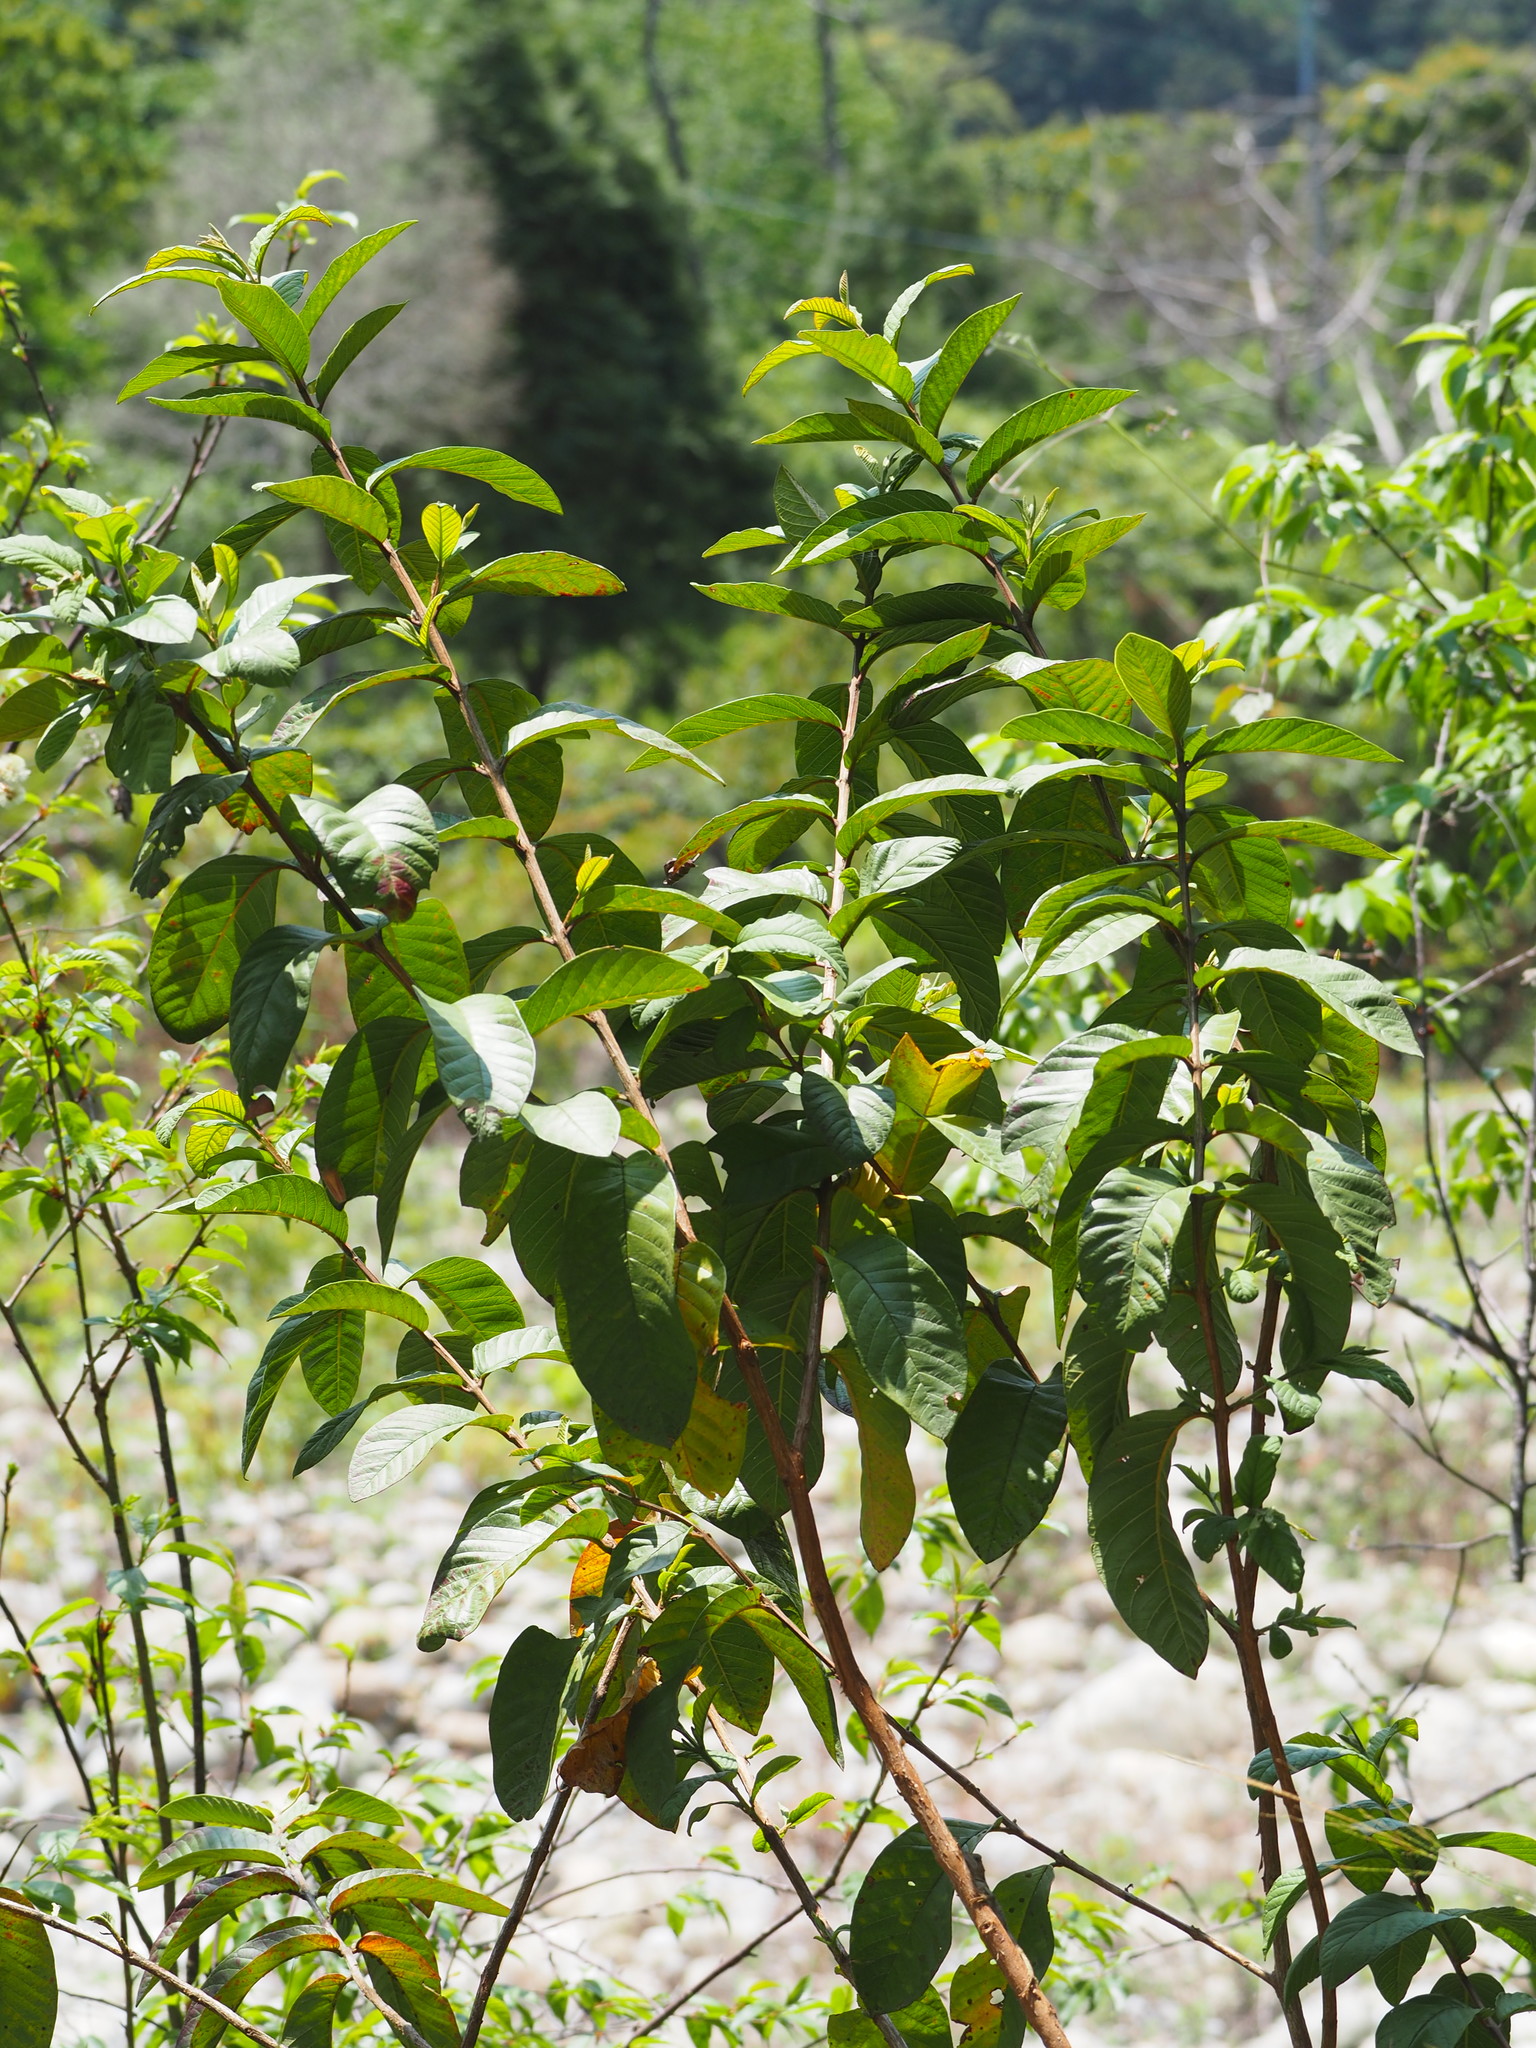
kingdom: Plantae
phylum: Tracheophyta
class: Magnoliopsida
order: Myrtales
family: Myrtaceae
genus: Psidium
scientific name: Psidium guajava
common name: Guava
